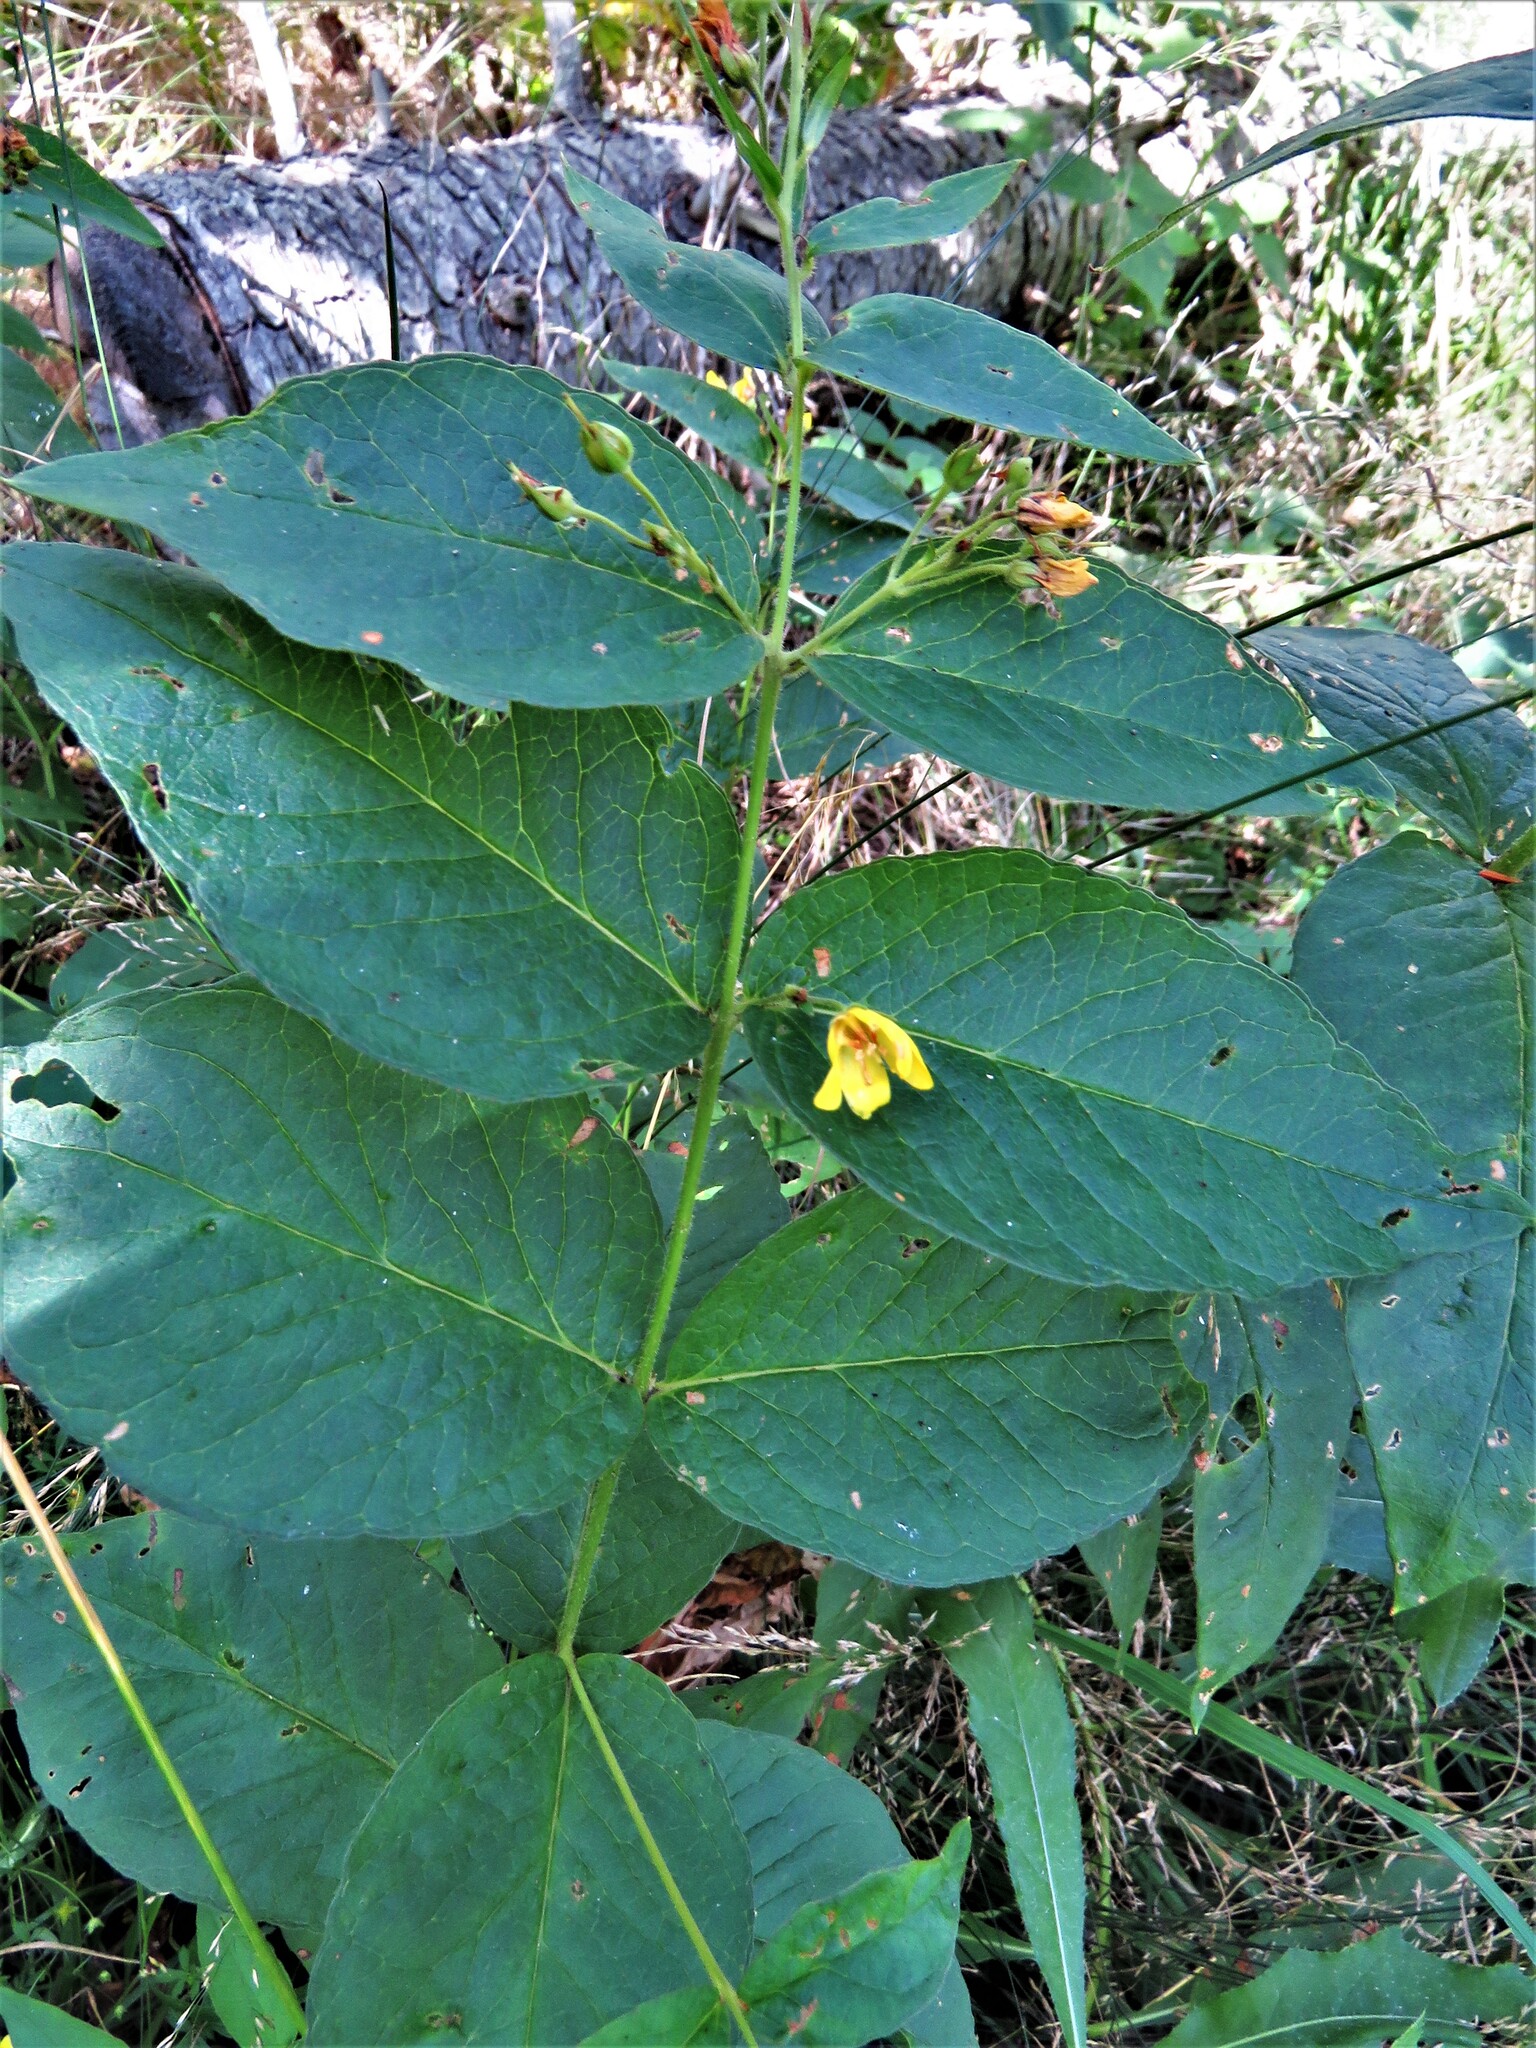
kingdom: Plantae
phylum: Tracheophyta
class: Magnoliopsida
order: Ericales
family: Primulaceae
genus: Lysimachia
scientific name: Lysimachia vulgaris
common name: Yellow loosestrife
